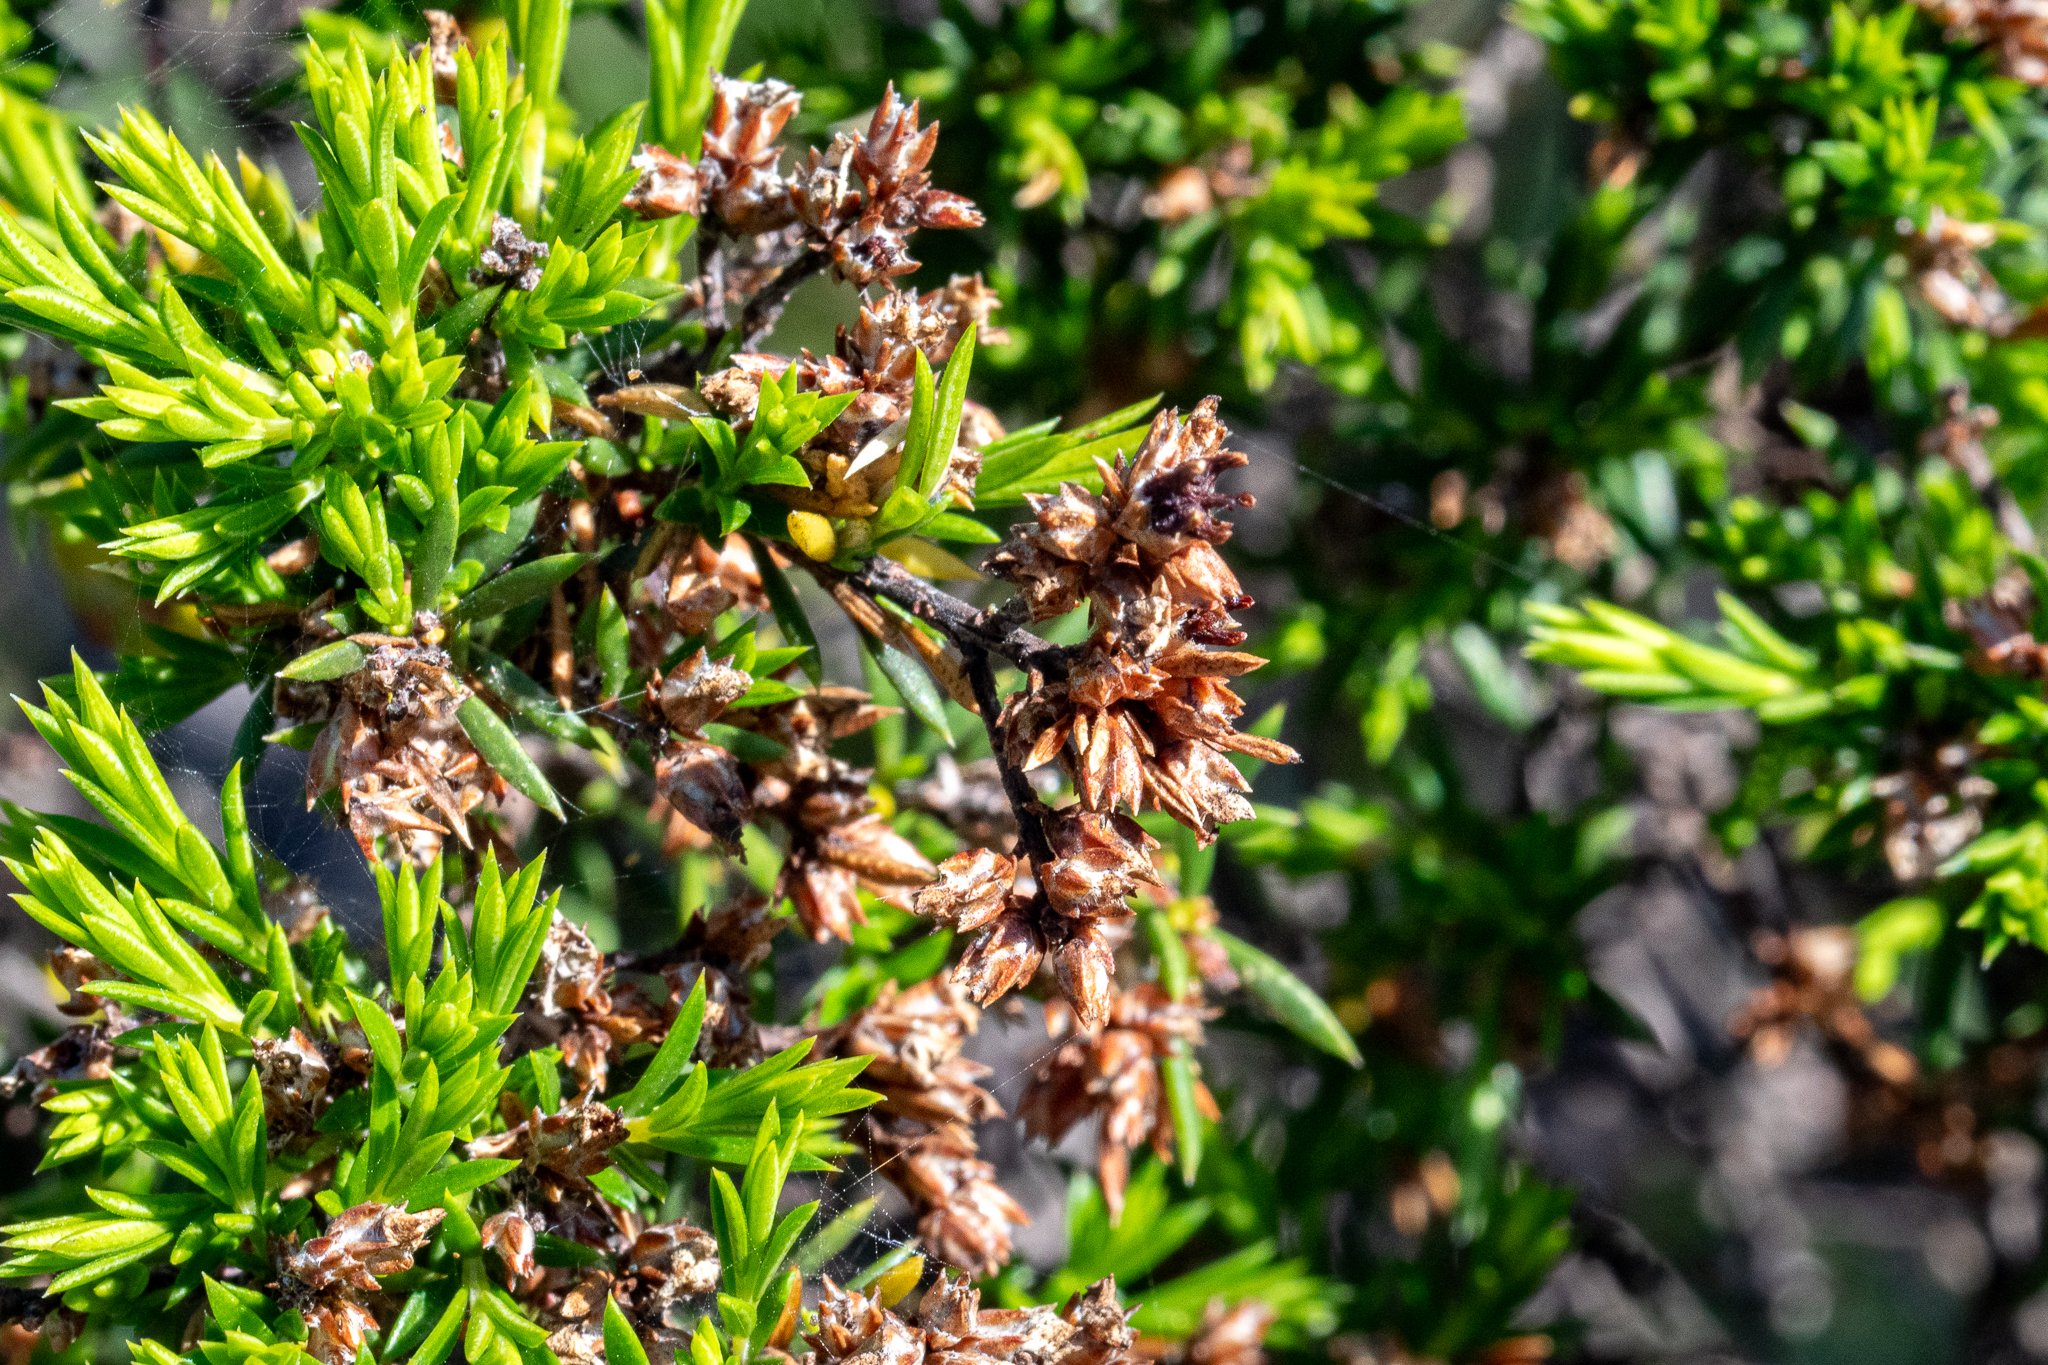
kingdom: Plantae
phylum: Tracheophyta
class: Magnoliopsida
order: Sapindales
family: Rutaceae
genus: Coleonema
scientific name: Coleonema album
